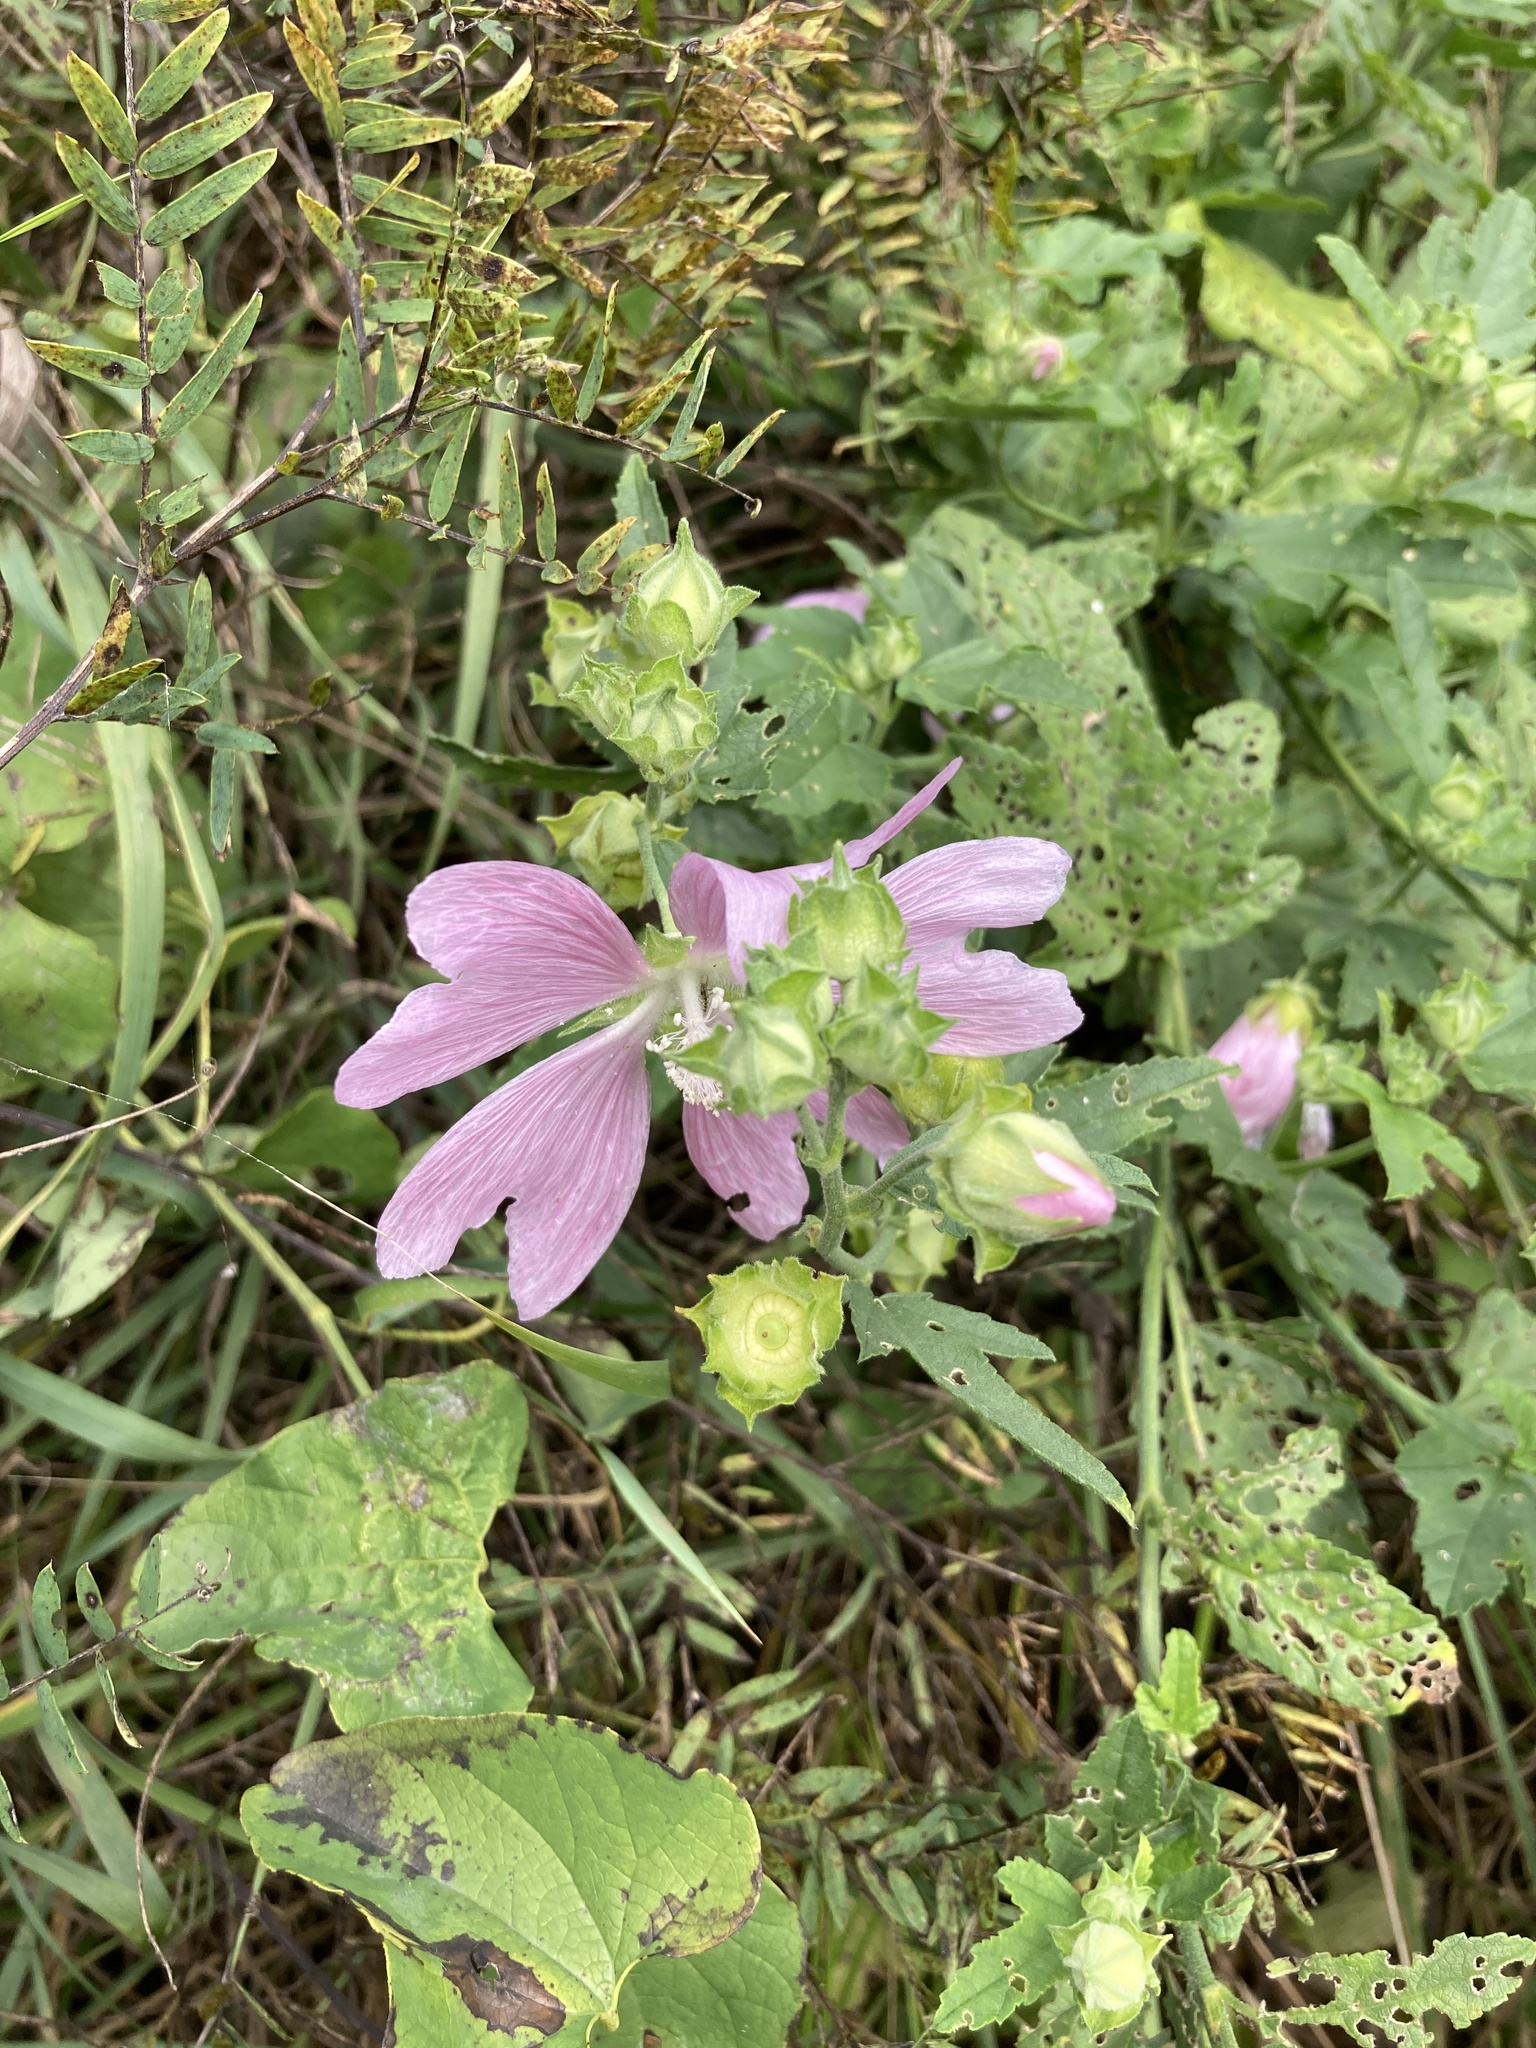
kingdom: Plantae
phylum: Tracheophyta
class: Magnoliopsida
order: Malvales
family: Malvaceae
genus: Malva
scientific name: Malva thuringiaca
